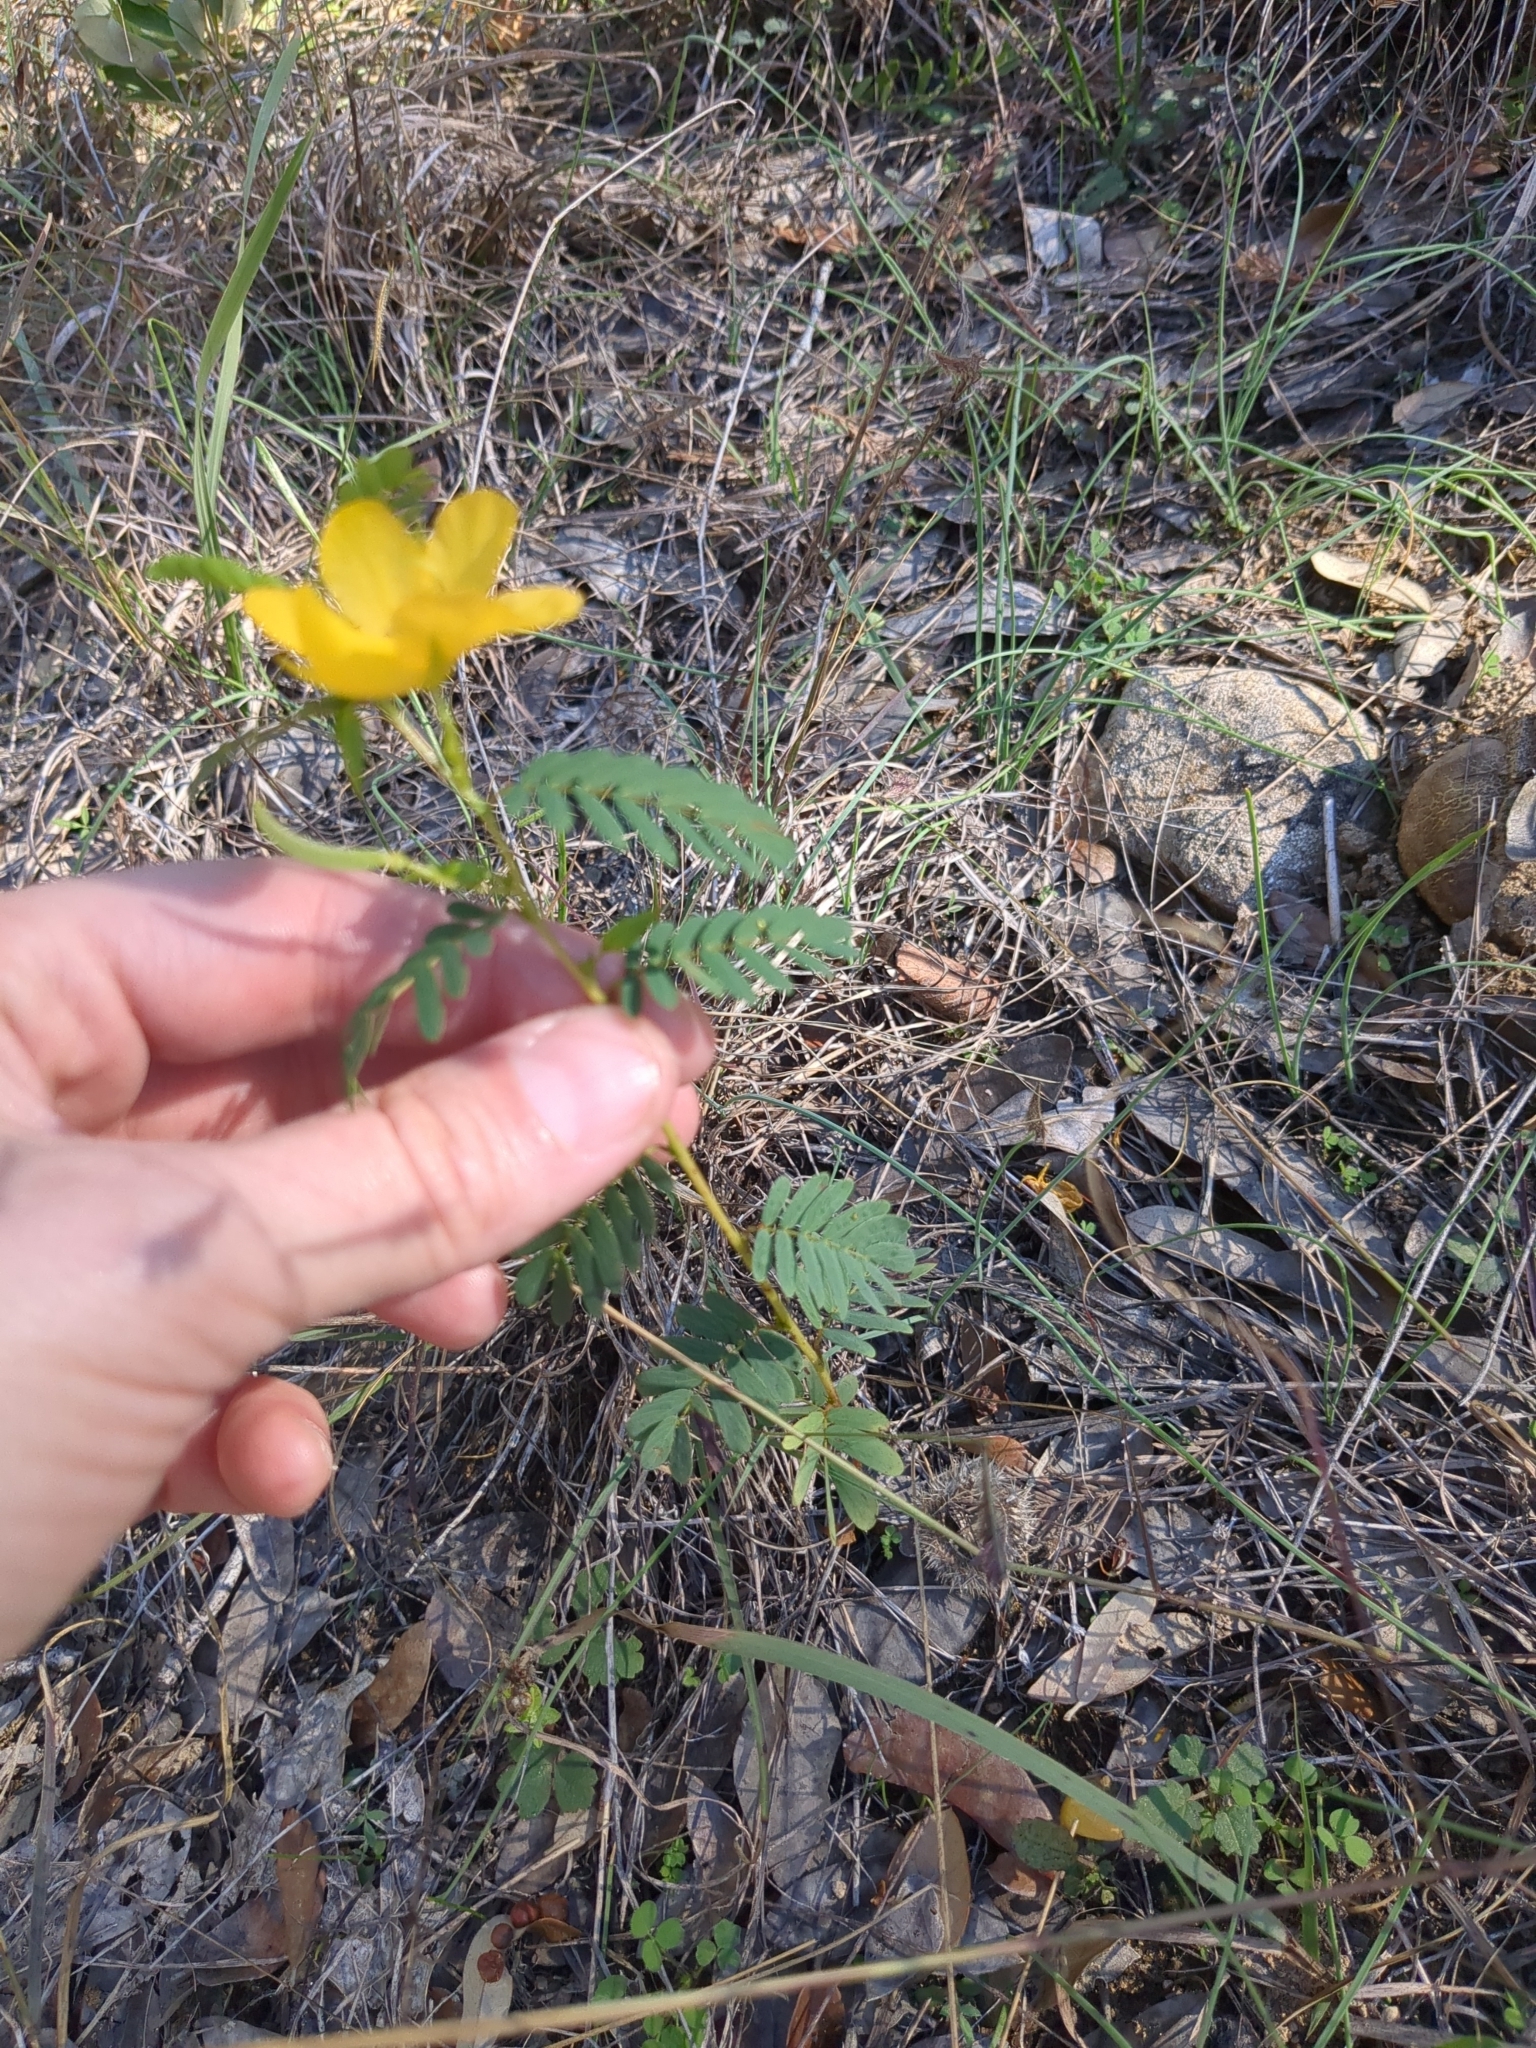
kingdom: Plantae
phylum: Tracheophyta
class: Magnoliopsida
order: Fabales
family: Fabaceae
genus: Chamaecrista
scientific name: Chamaecrista fasciculata
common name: Golden cassia
